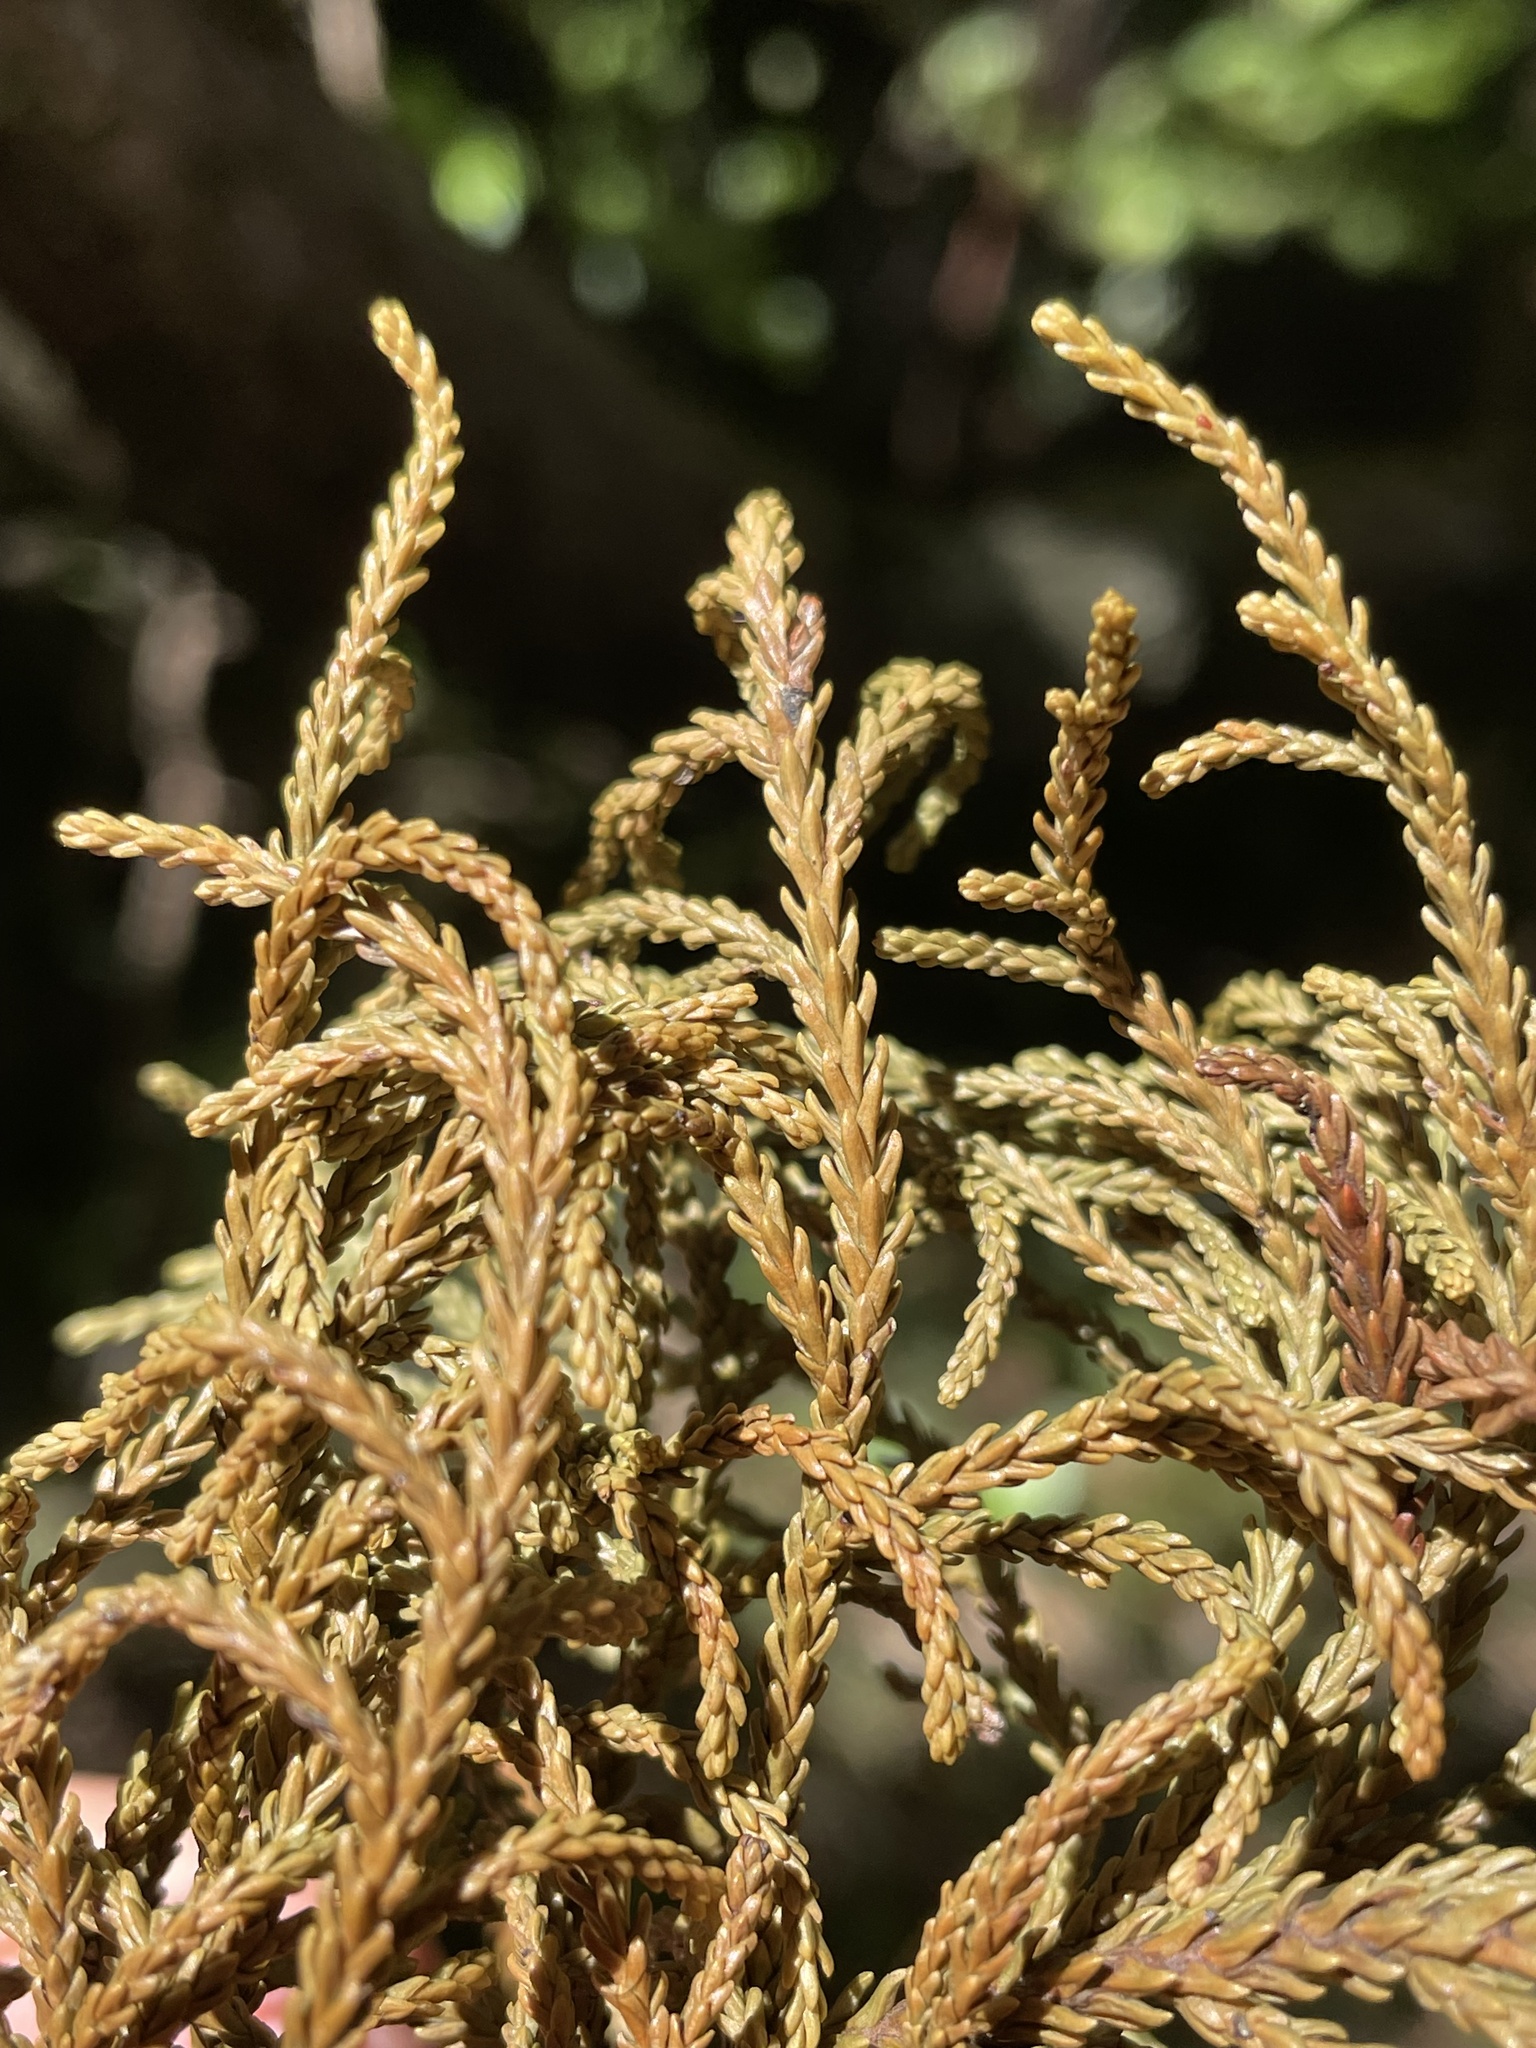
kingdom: Plantae
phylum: Tracheophyta
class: Pinopsida
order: Pinales
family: Podocarpaceae
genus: Dacrydium
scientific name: Dacrydium cupressinum
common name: Red pine
